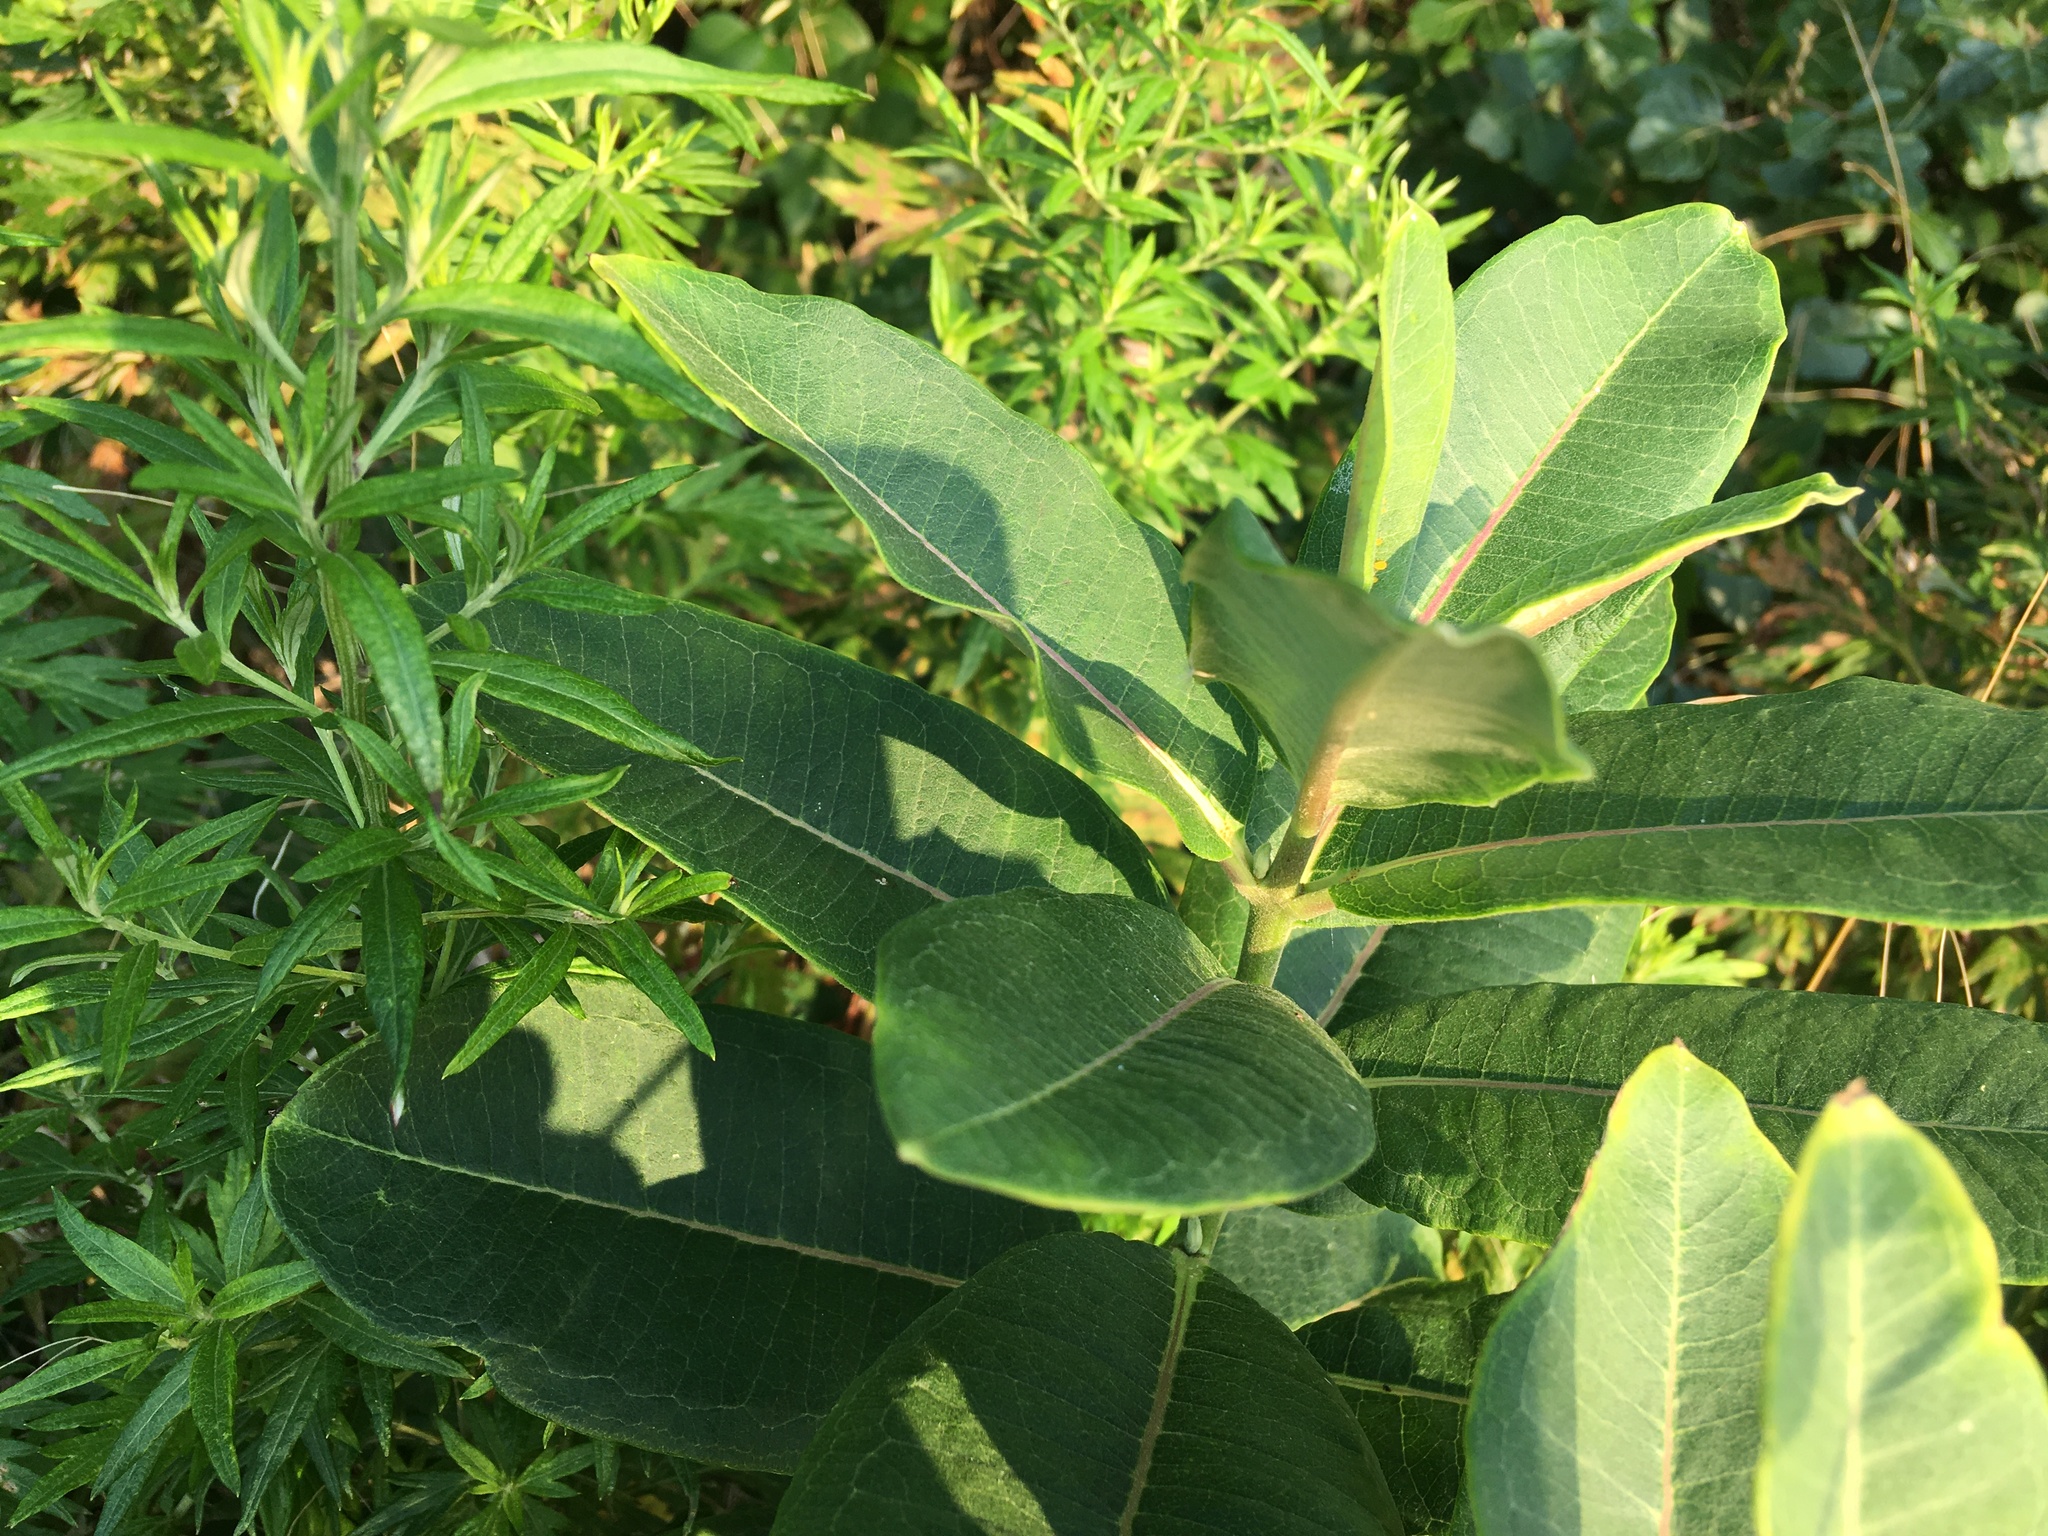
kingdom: Plantae
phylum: Tracheophyta
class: Magnoliopsida
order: Gentianales
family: Apocynaceae
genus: Asclepias
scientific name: Asclepias syriaca
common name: Common milkweed
